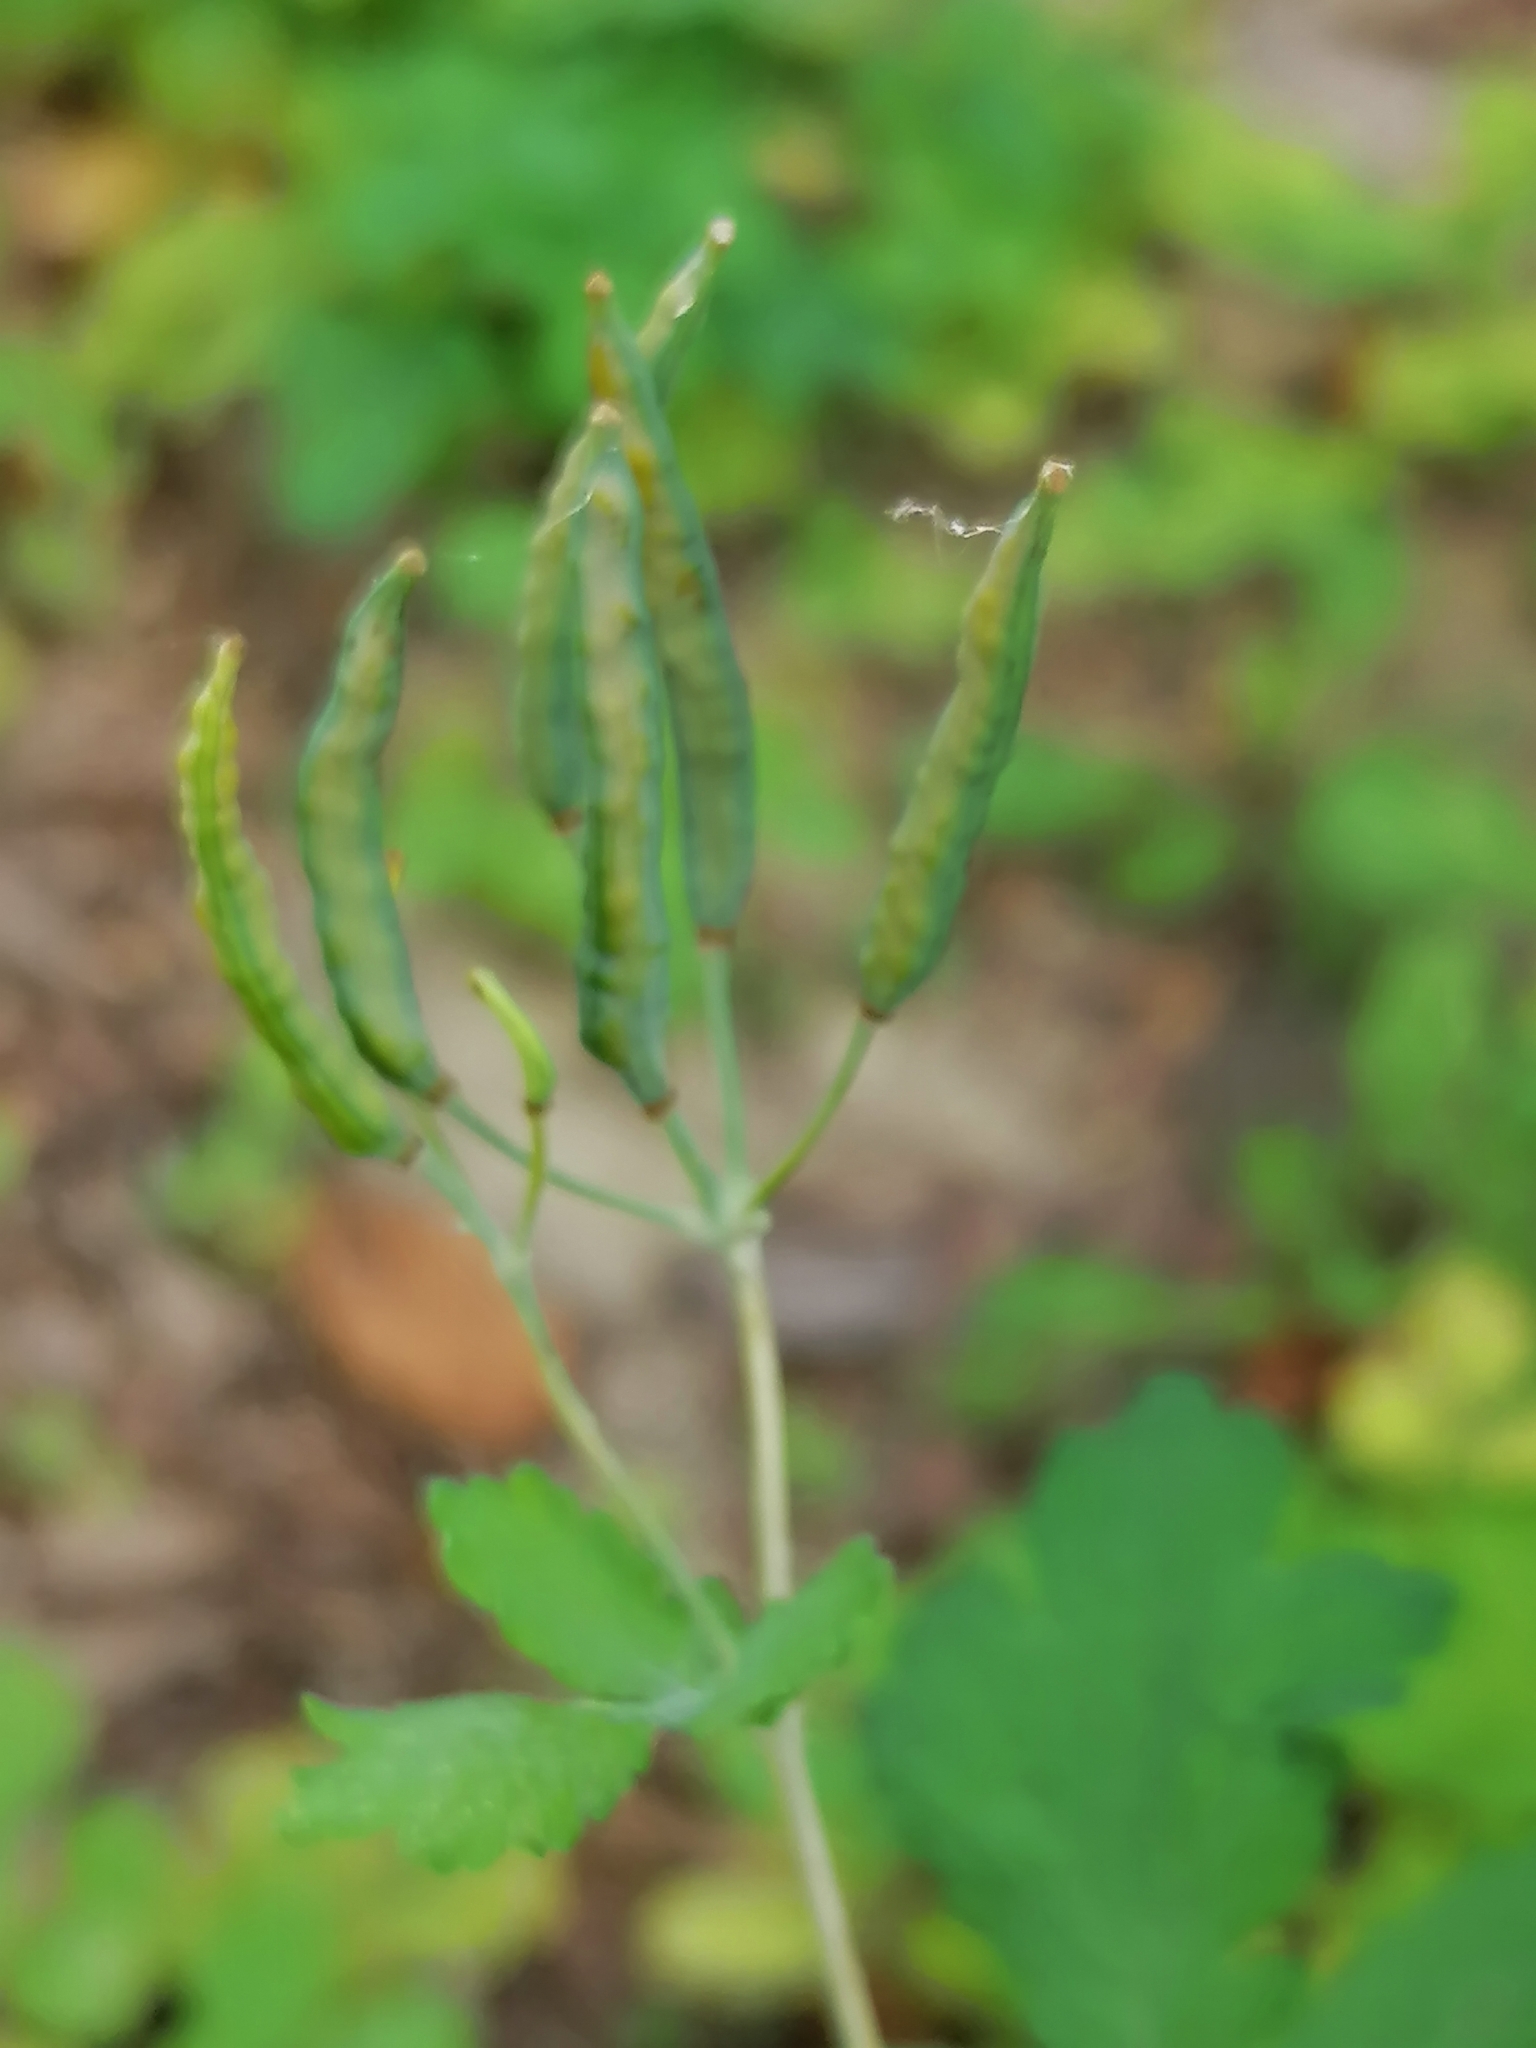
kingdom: Plantae
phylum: Tracheophyta
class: Magnoliopsida
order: Ranunculales
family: Papaveraceae
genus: Chelidonium
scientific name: Chelidonium majus
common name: Greater celandine
